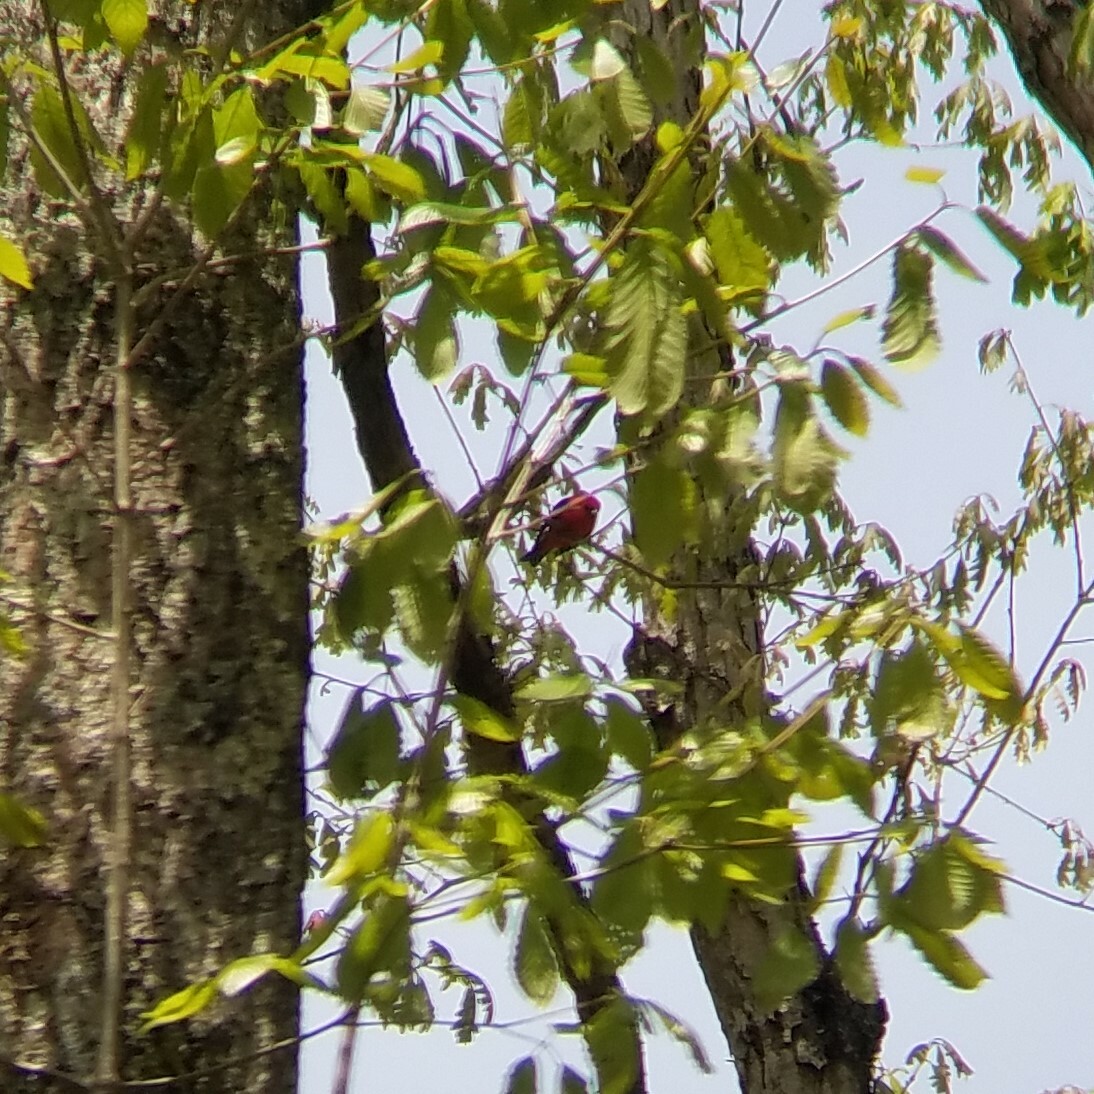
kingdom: Animalia
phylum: Chordata
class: Aves
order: Passeriformes
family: Cardinalidae
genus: Piranga
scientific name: Piranga olivacea
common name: Scarlet tanager
